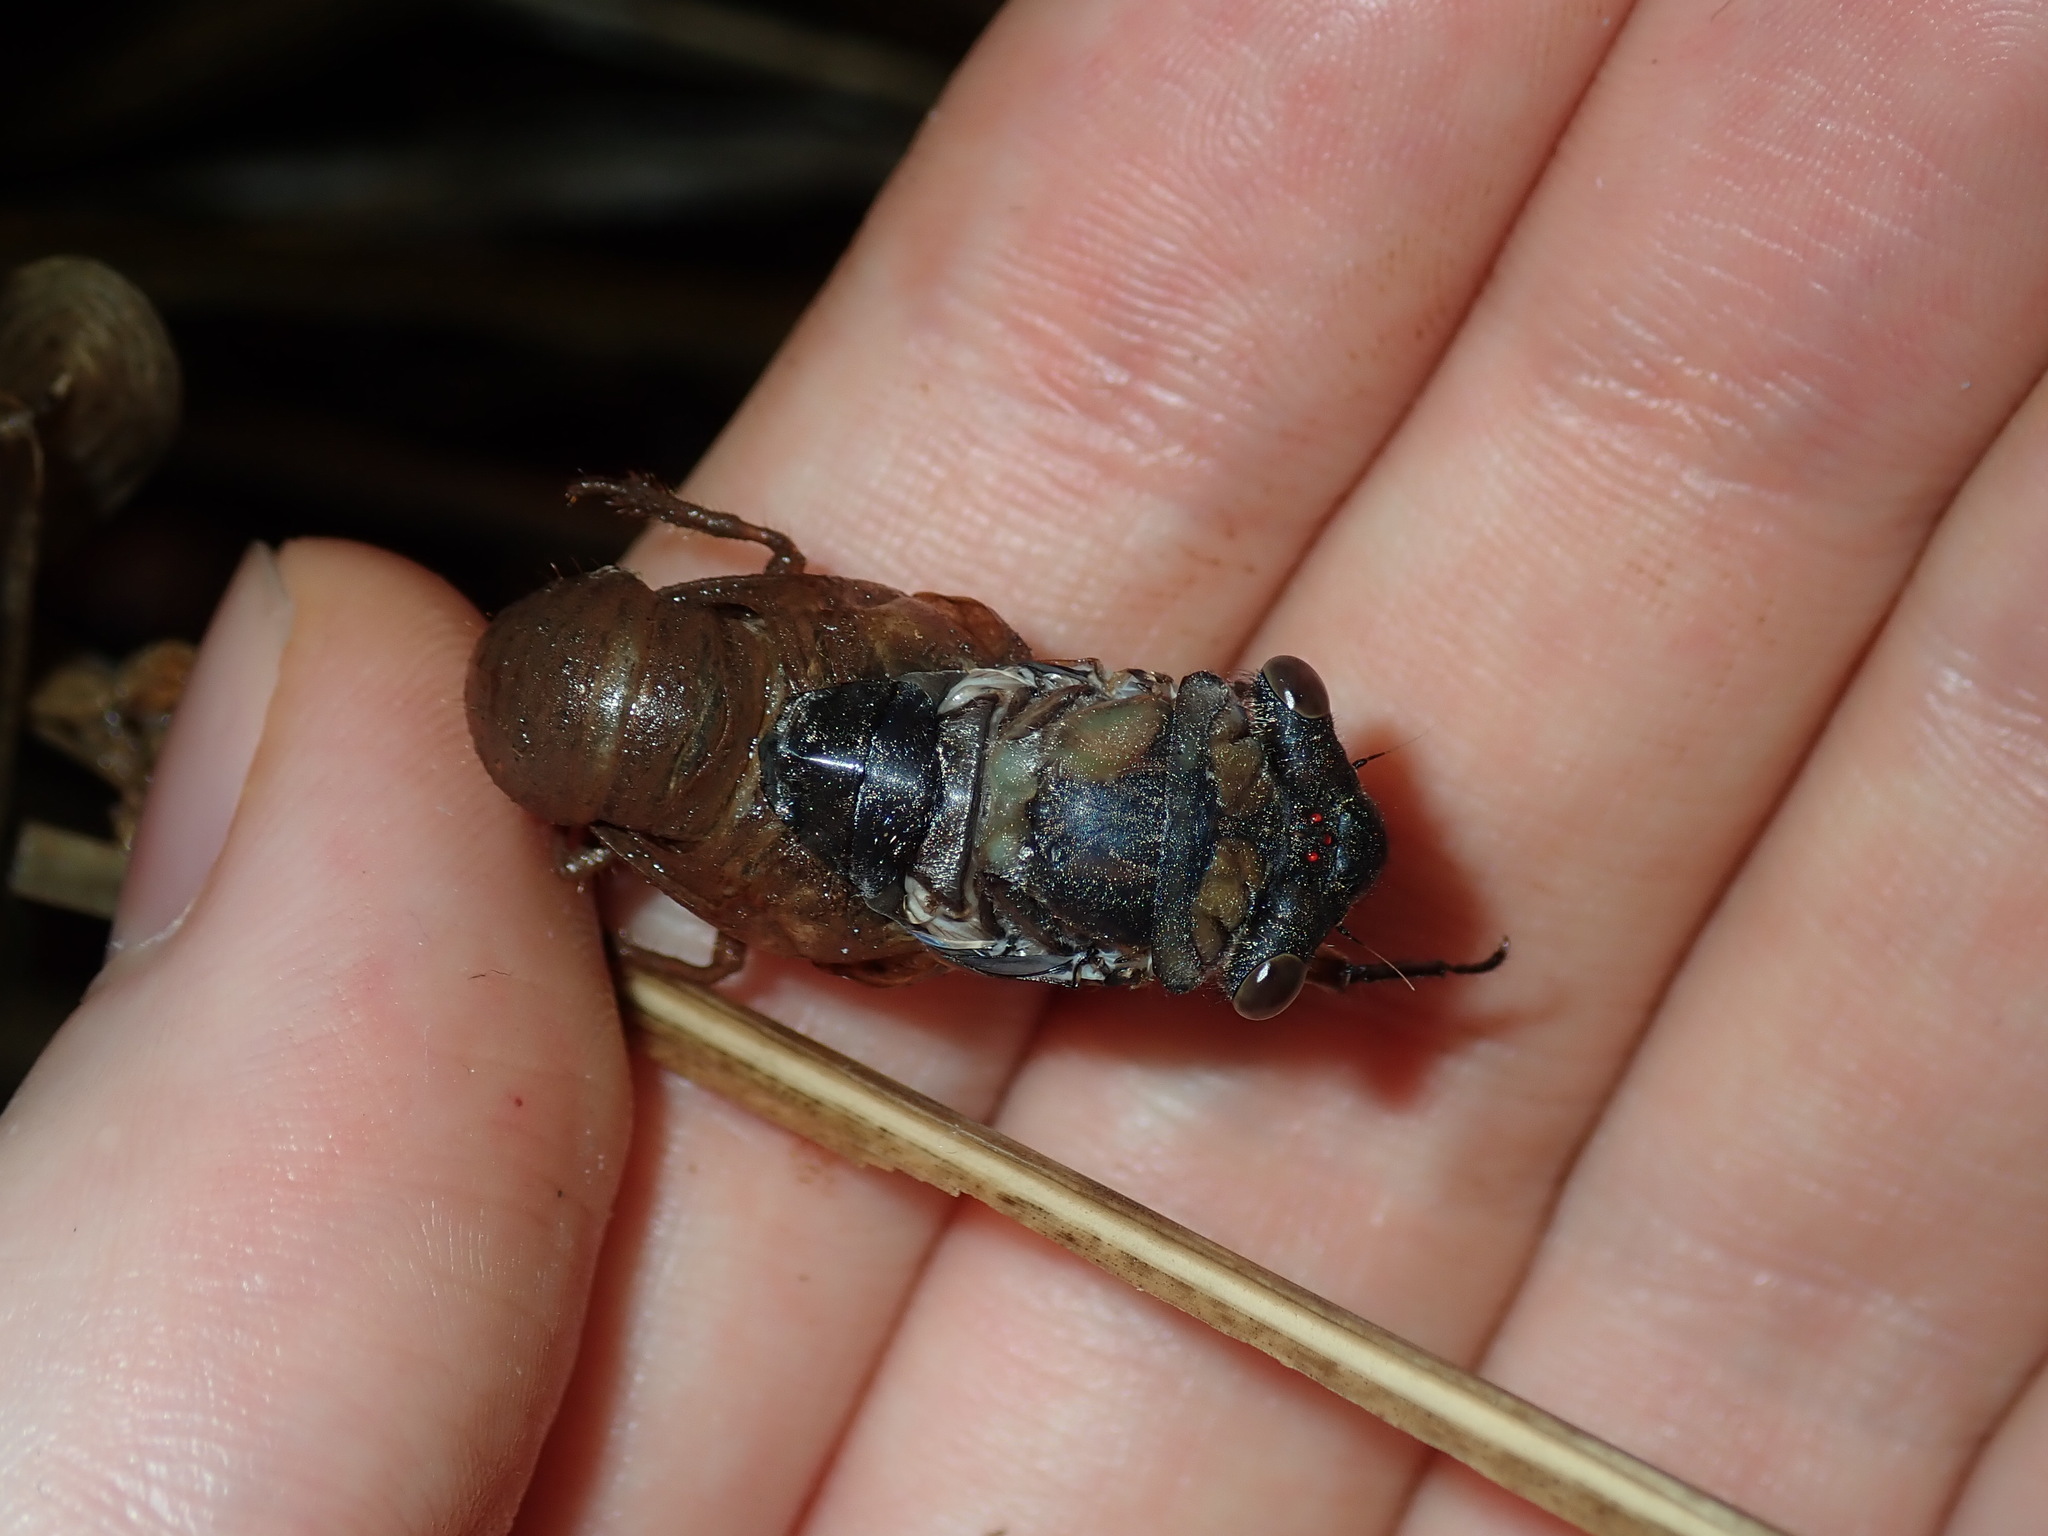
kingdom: Animalia
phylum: Arthropoda
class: Insecta
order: Hemiptera
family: Cicadidae
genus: Psaltoda
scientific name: Psaltoda mossi
